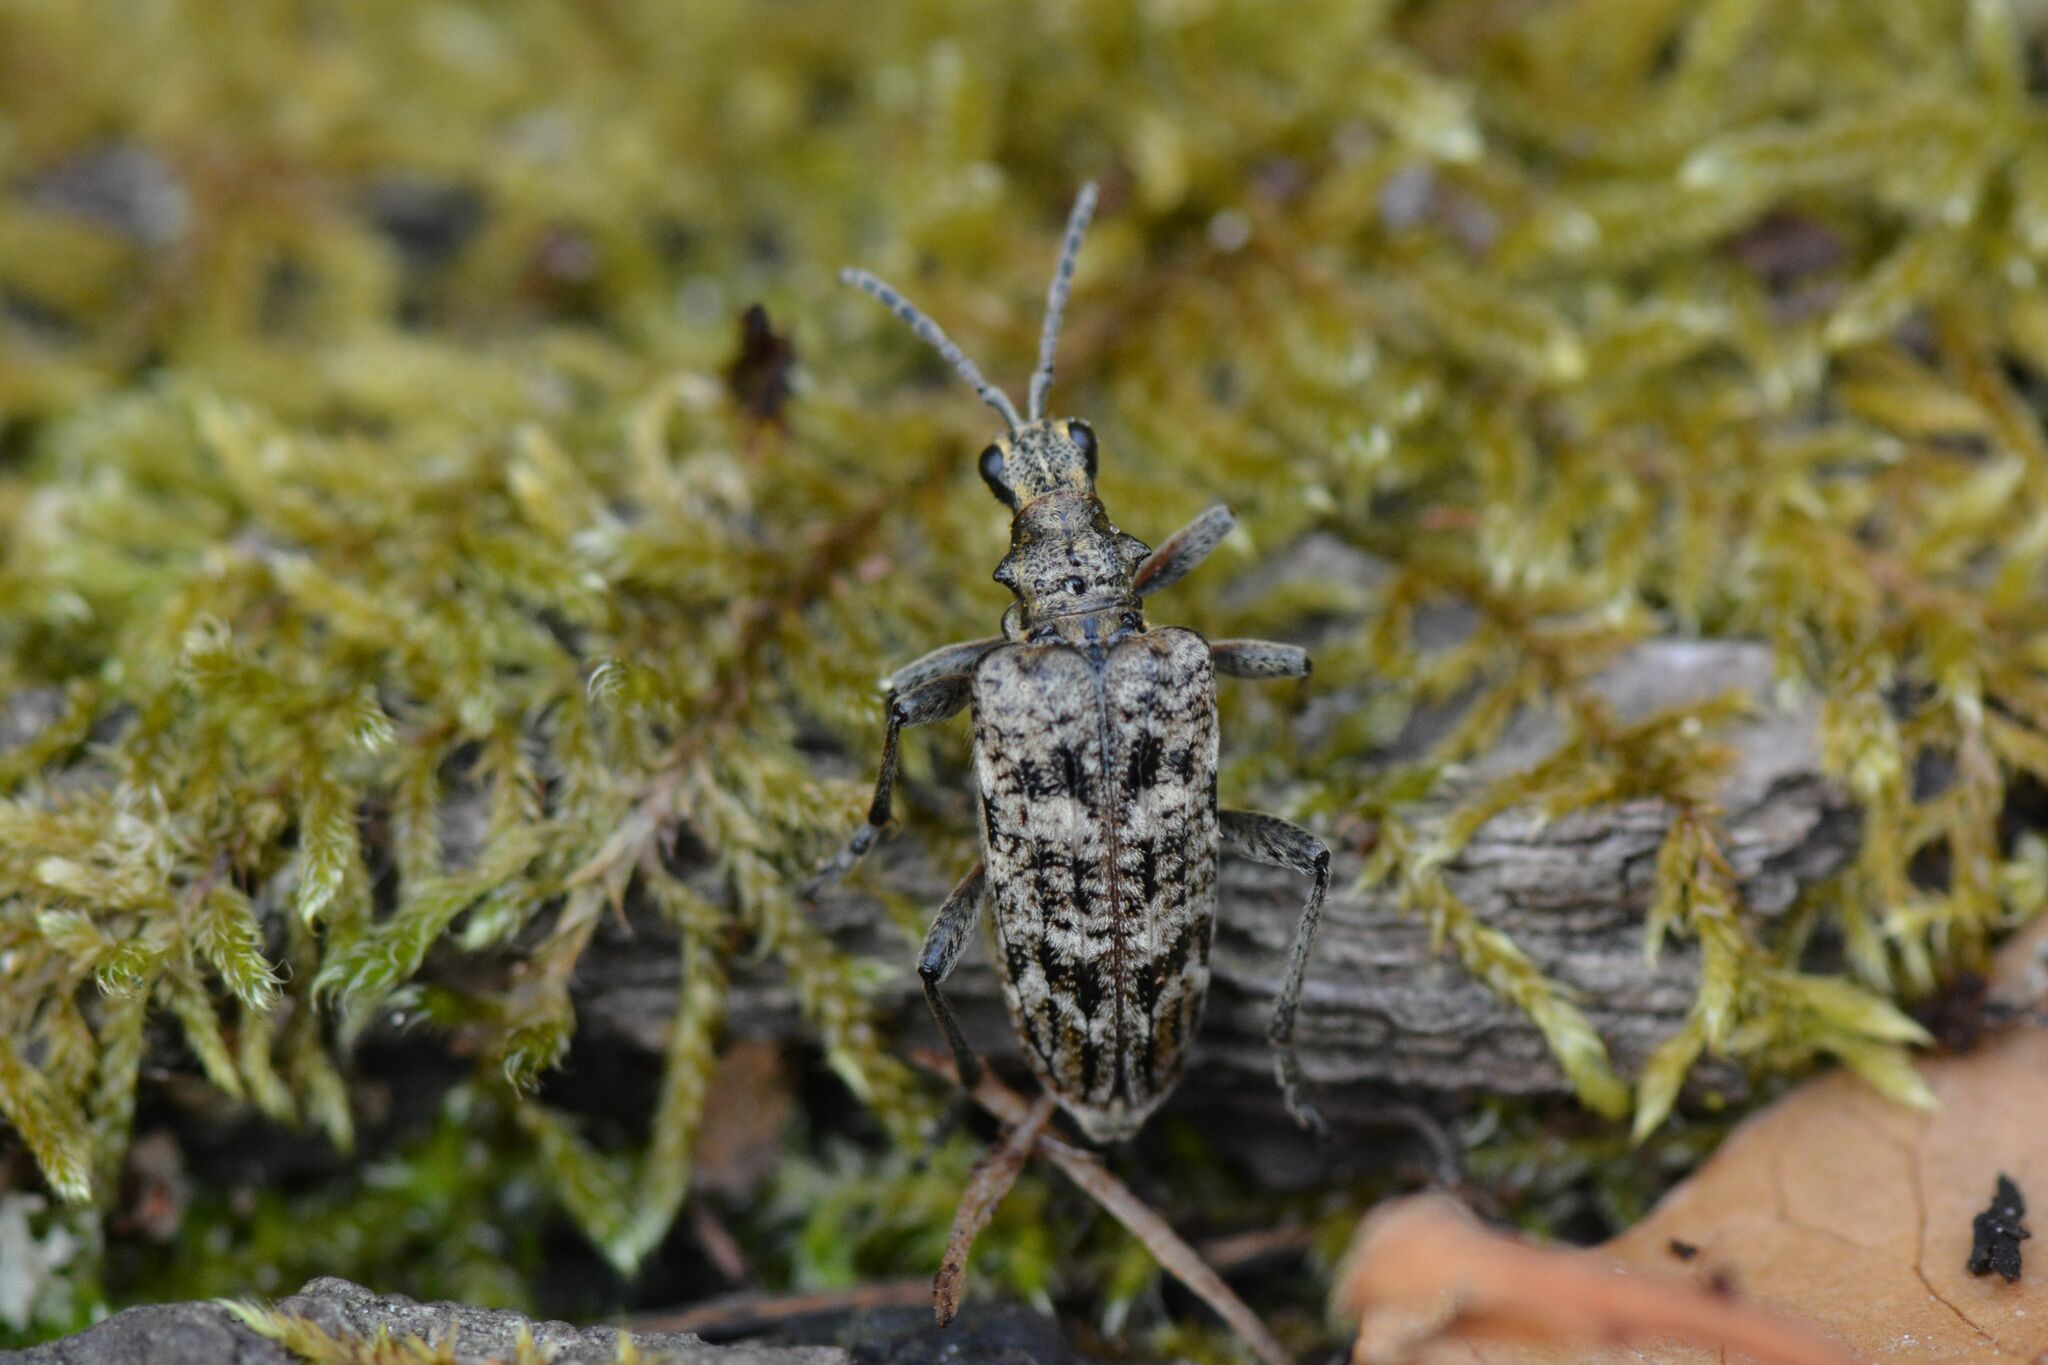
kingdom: Animalia
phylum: Arthropoda
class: Insecta
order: Coleoptera
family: Cerambycidae
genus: Rhagium
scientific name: Rhagium inquisitor
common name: Ribbed pine borer
